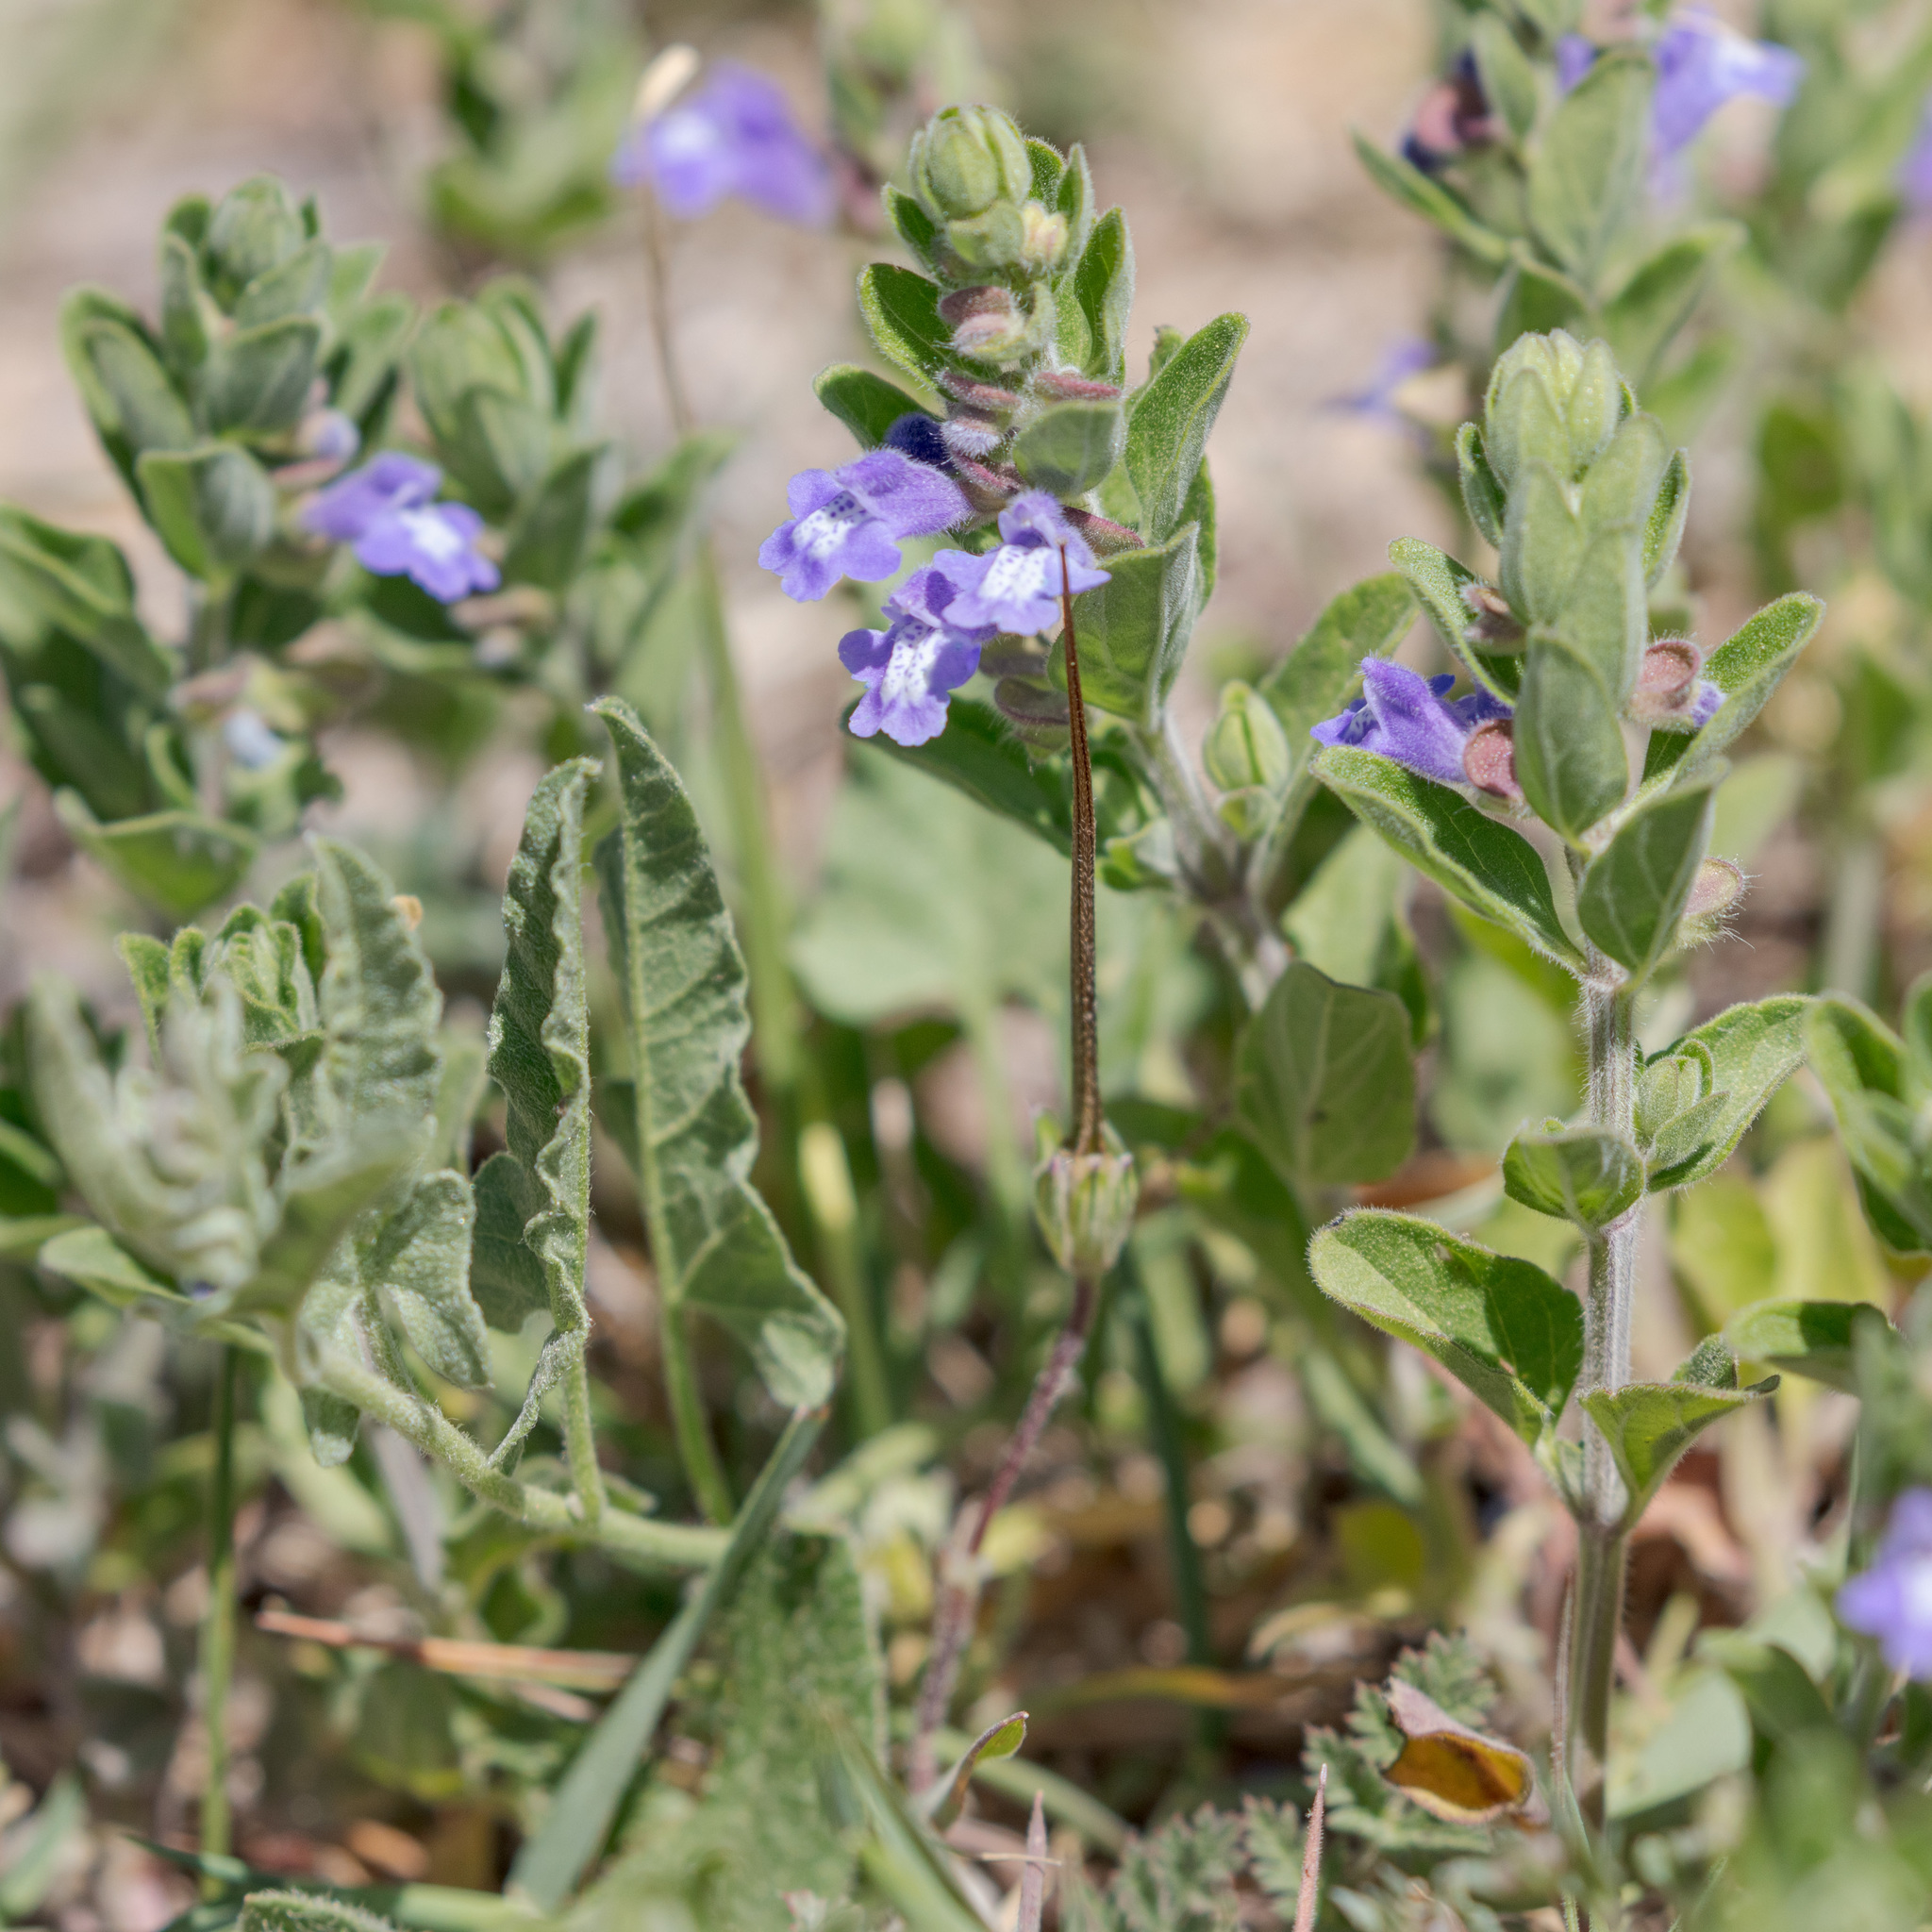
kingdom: Plantae
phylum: Tracheophyta
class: Magnoliopsida
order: Lamiales
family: Lamiaceae
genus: Scutellaria
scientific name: Scutellaria drummondii
